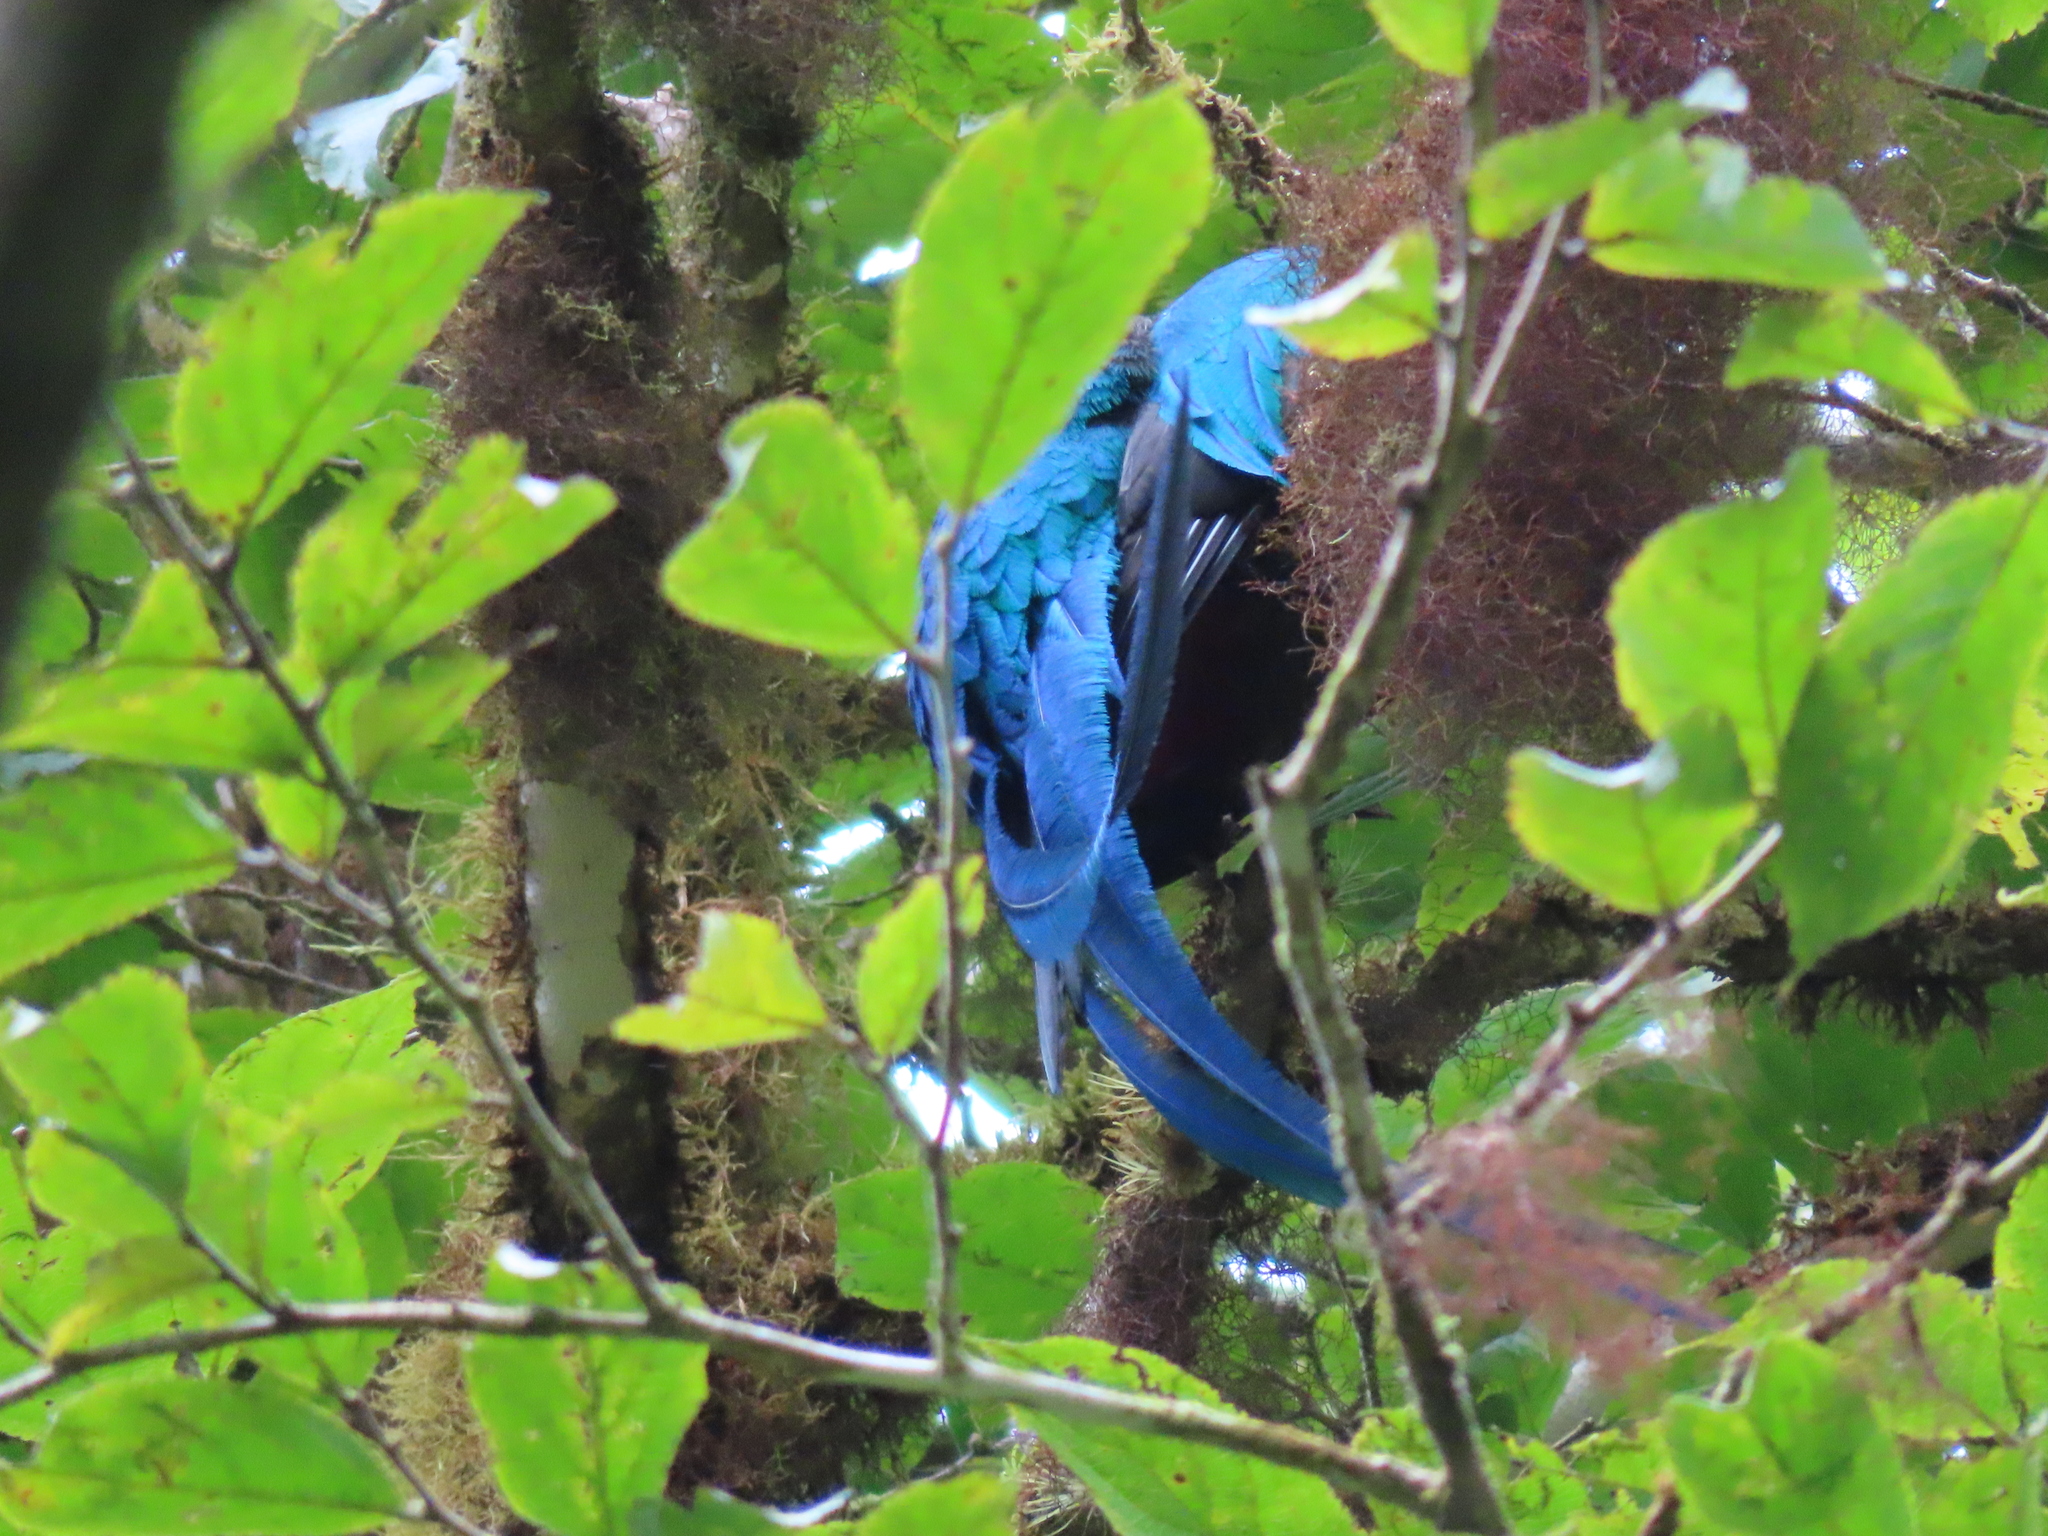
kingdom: Animalia
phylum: Chordata
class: Aves
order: Trogoniformes
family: Trogonidae
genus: Pharomachrus
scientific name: Pharomachrus mocinno
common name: Resplendent quetzal
